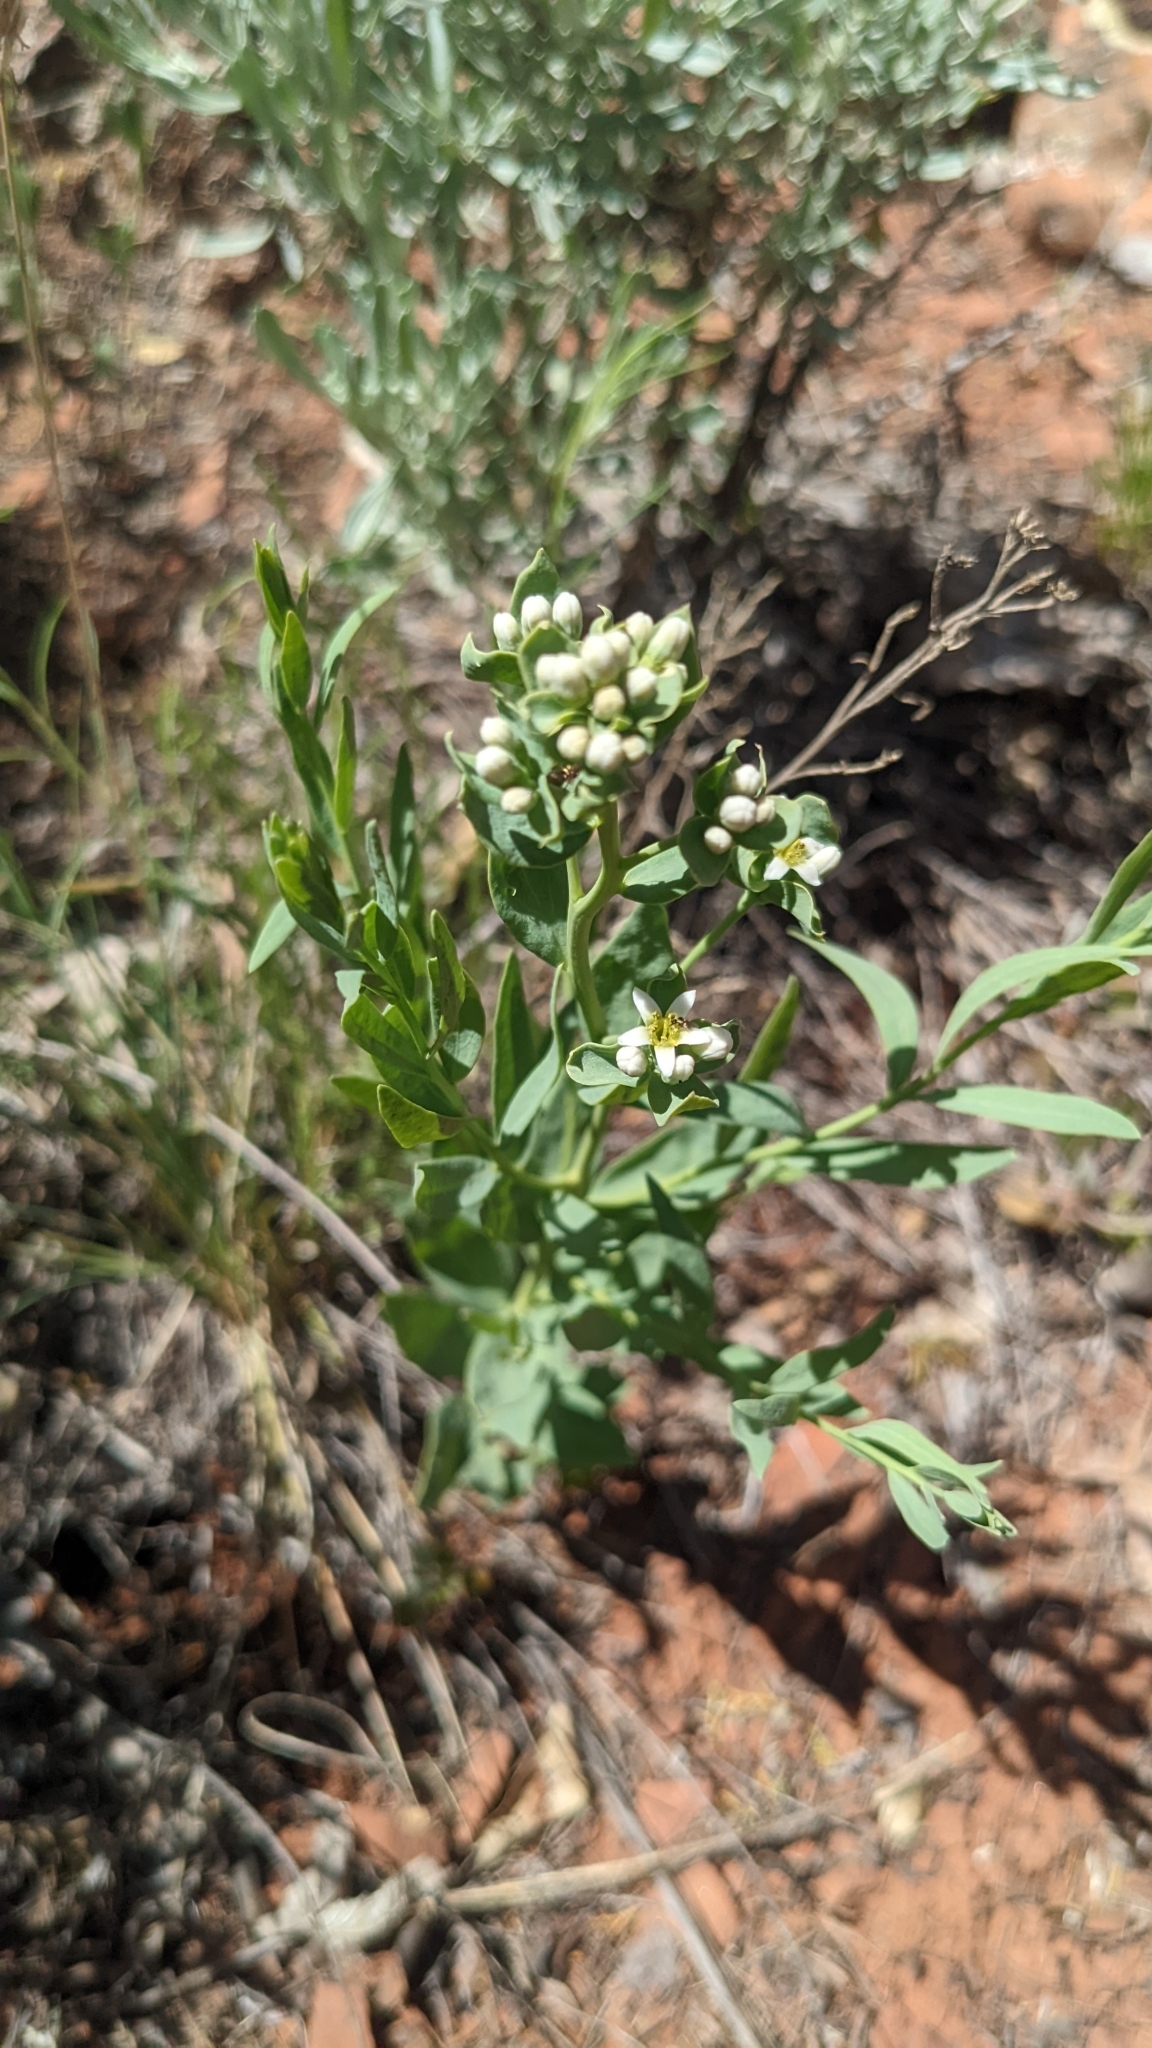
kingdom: Plantae
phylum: Tracheophyta
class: Magnoliopsida
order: Santalales
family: Comandraceae
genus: Comandra
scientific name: Comandra umbellata
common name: Bastard toadflax
